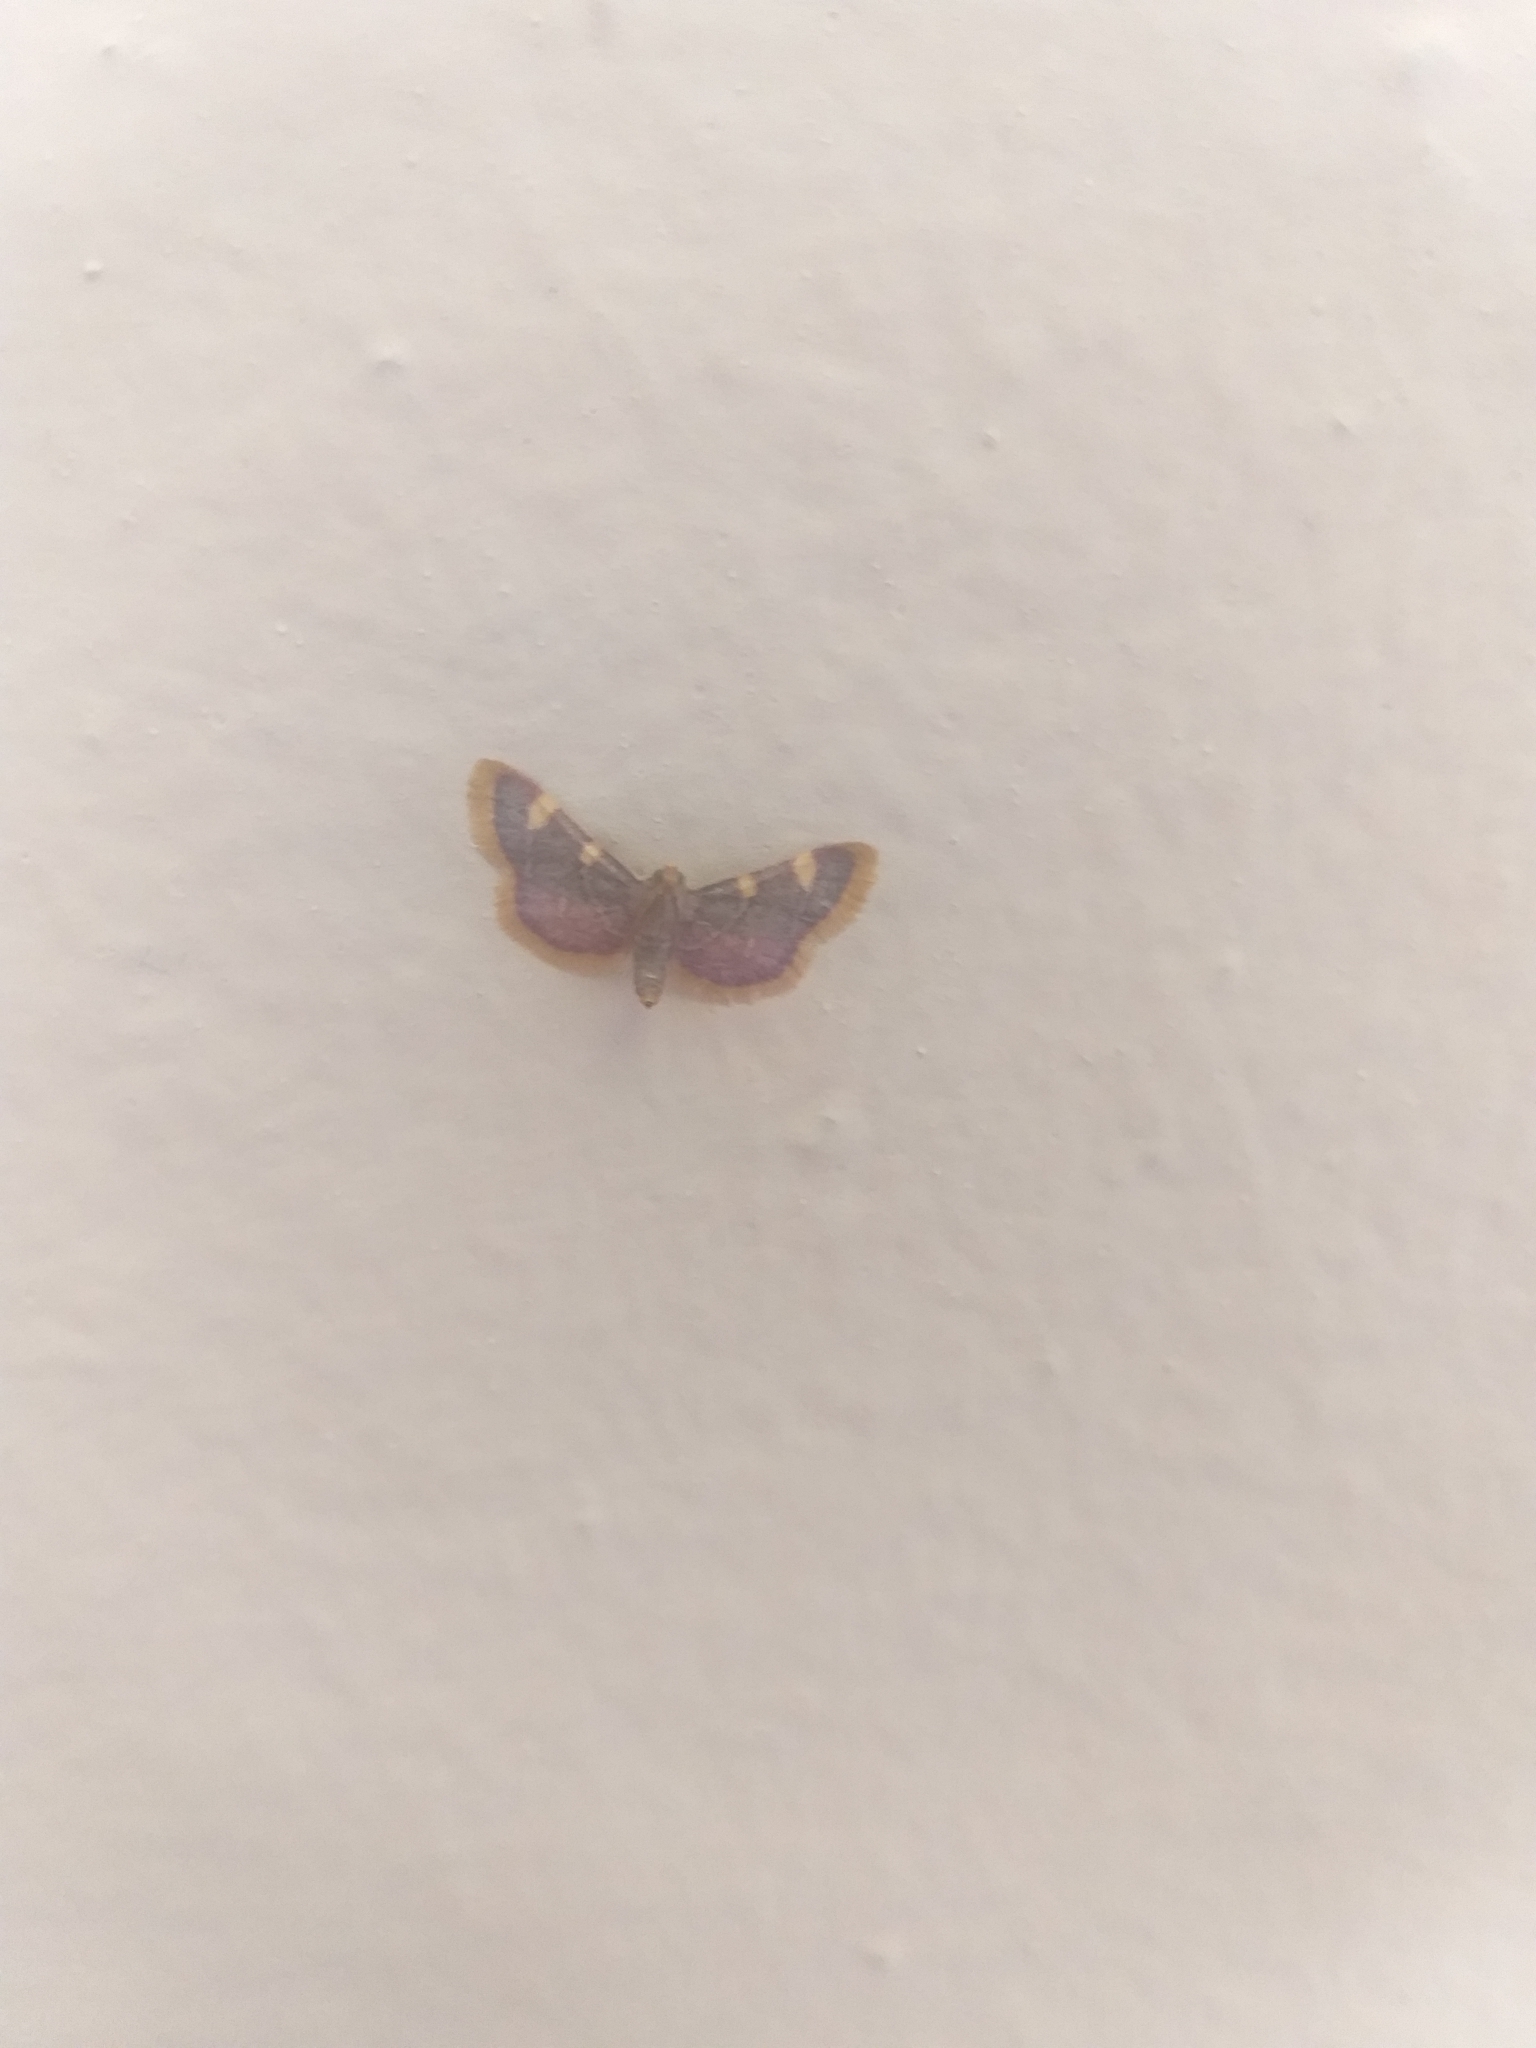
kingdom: Animalia
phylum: Arthropoda
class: Insecta
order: Lepidoptera
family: Pyralidae
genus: Hypsopygia
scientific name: Hypsopygia costalis
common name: Gold triangle
